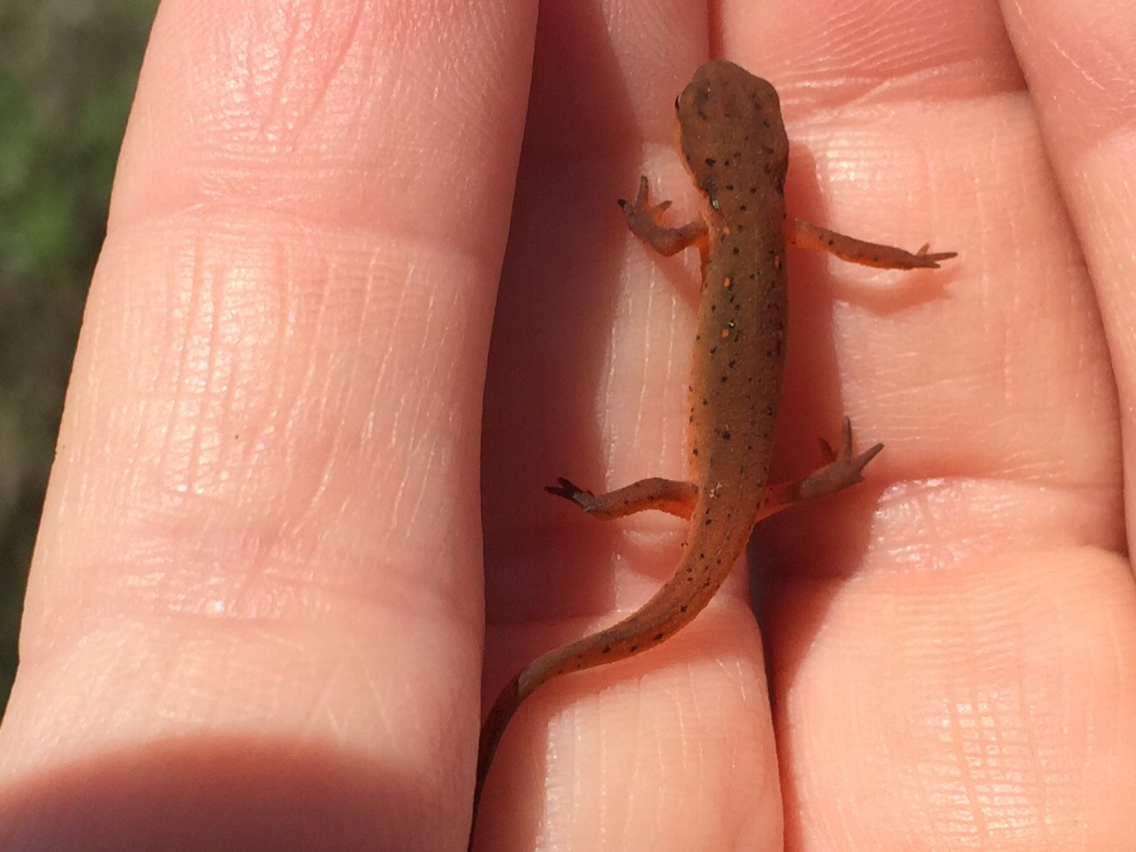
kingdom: Animalia
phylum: Chordata
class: Amphibia
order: Caudata
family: Salamandridae
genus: Notophthalmus
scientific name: Notophthalmus viridescens
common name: Eastern newt
